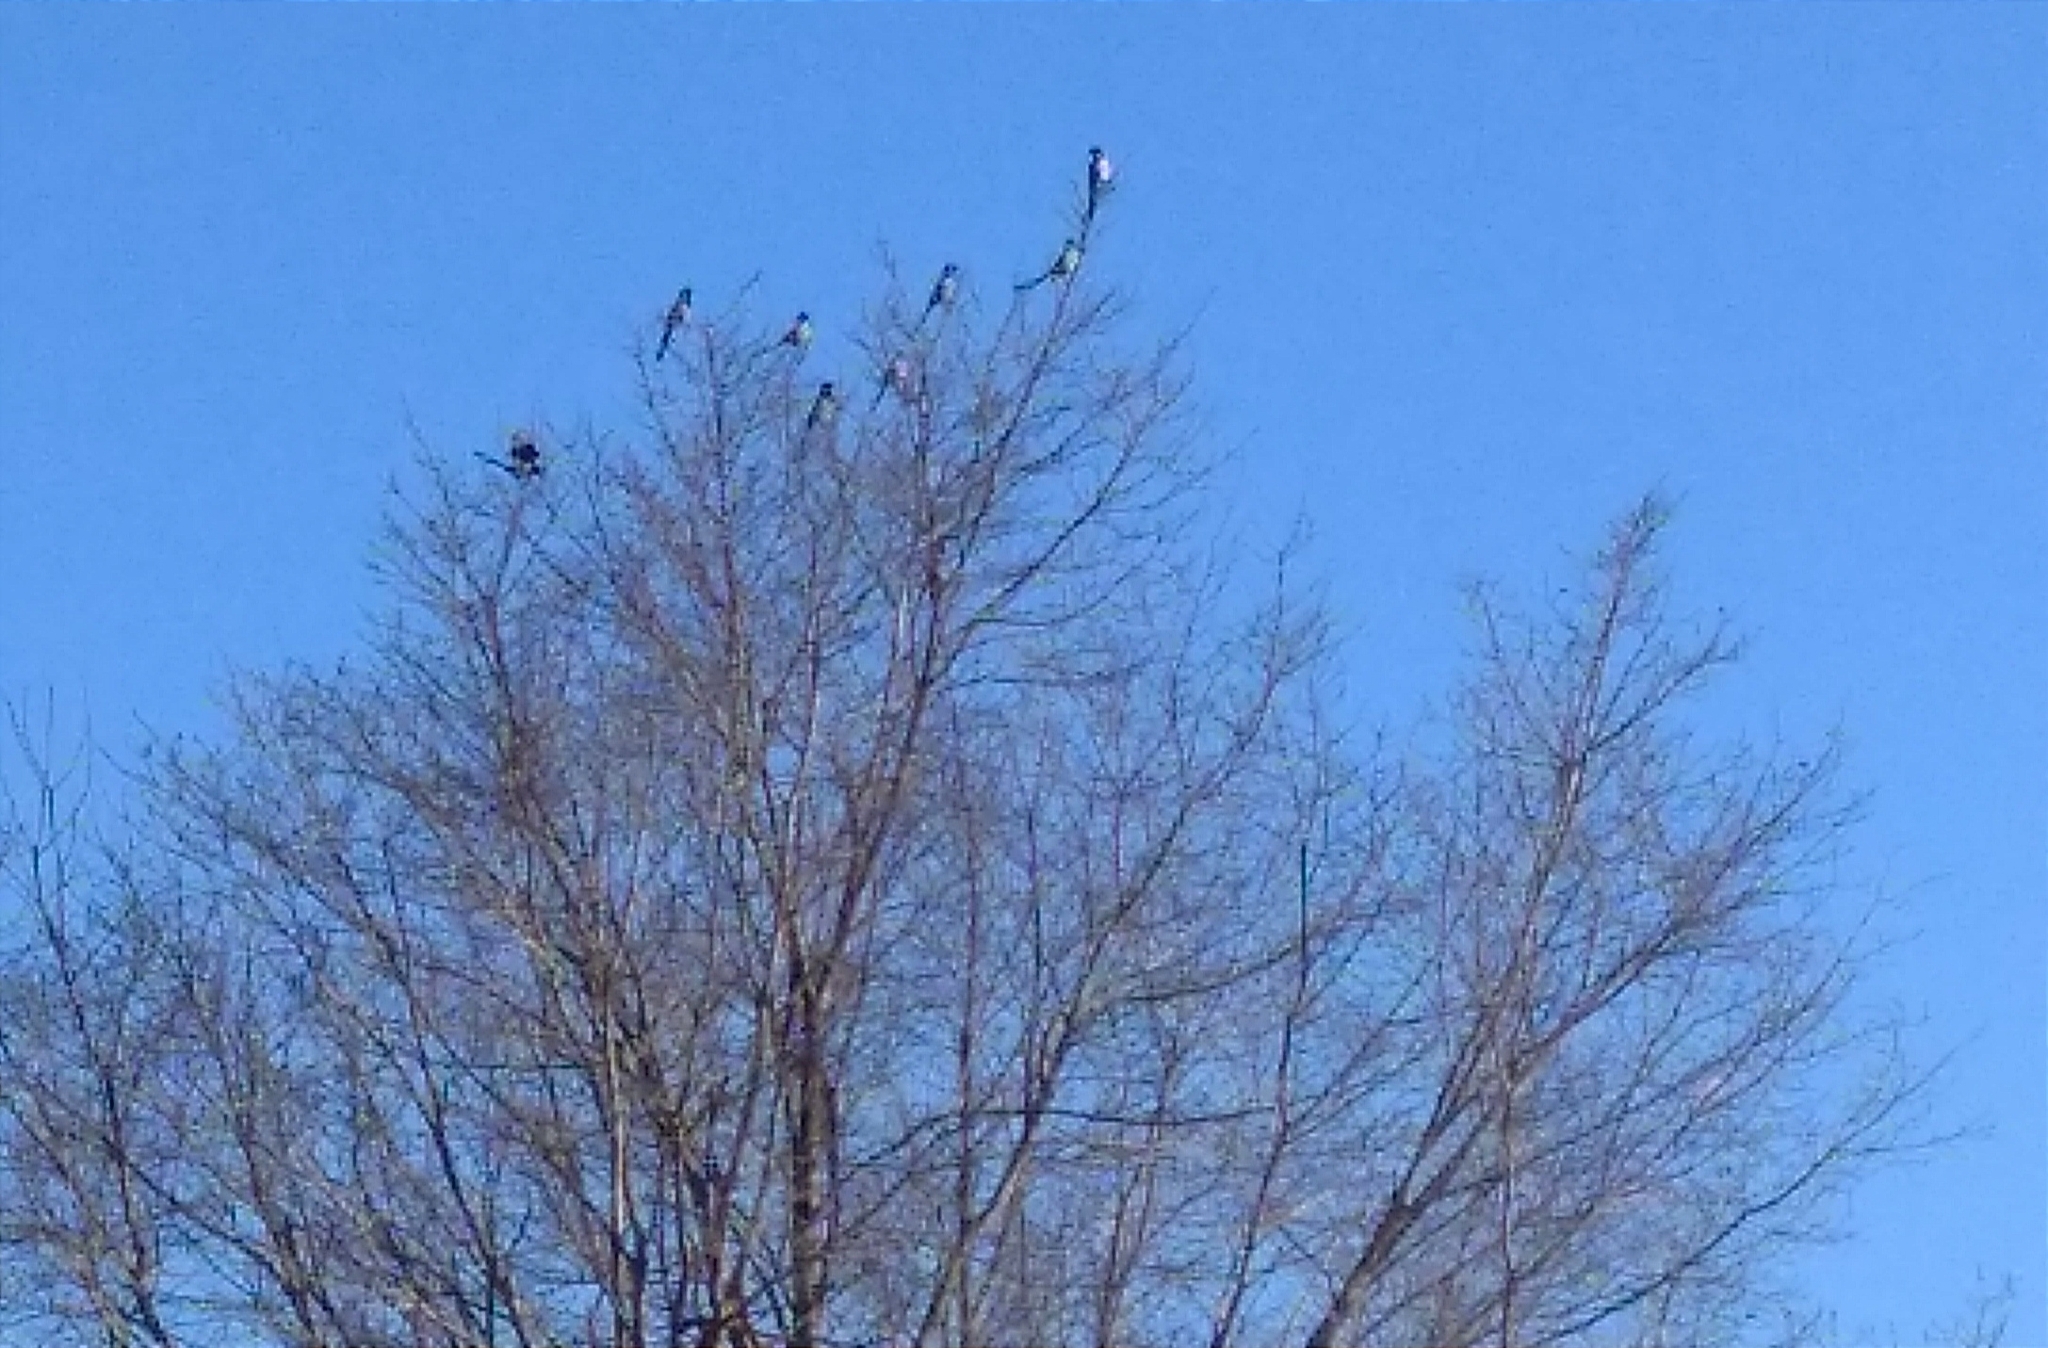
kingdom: Animalia
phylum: Chordata
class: Aves
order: Passeriformes
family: Corvidae
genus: Pica
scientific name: Pica pica
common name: Eurasian magpie
